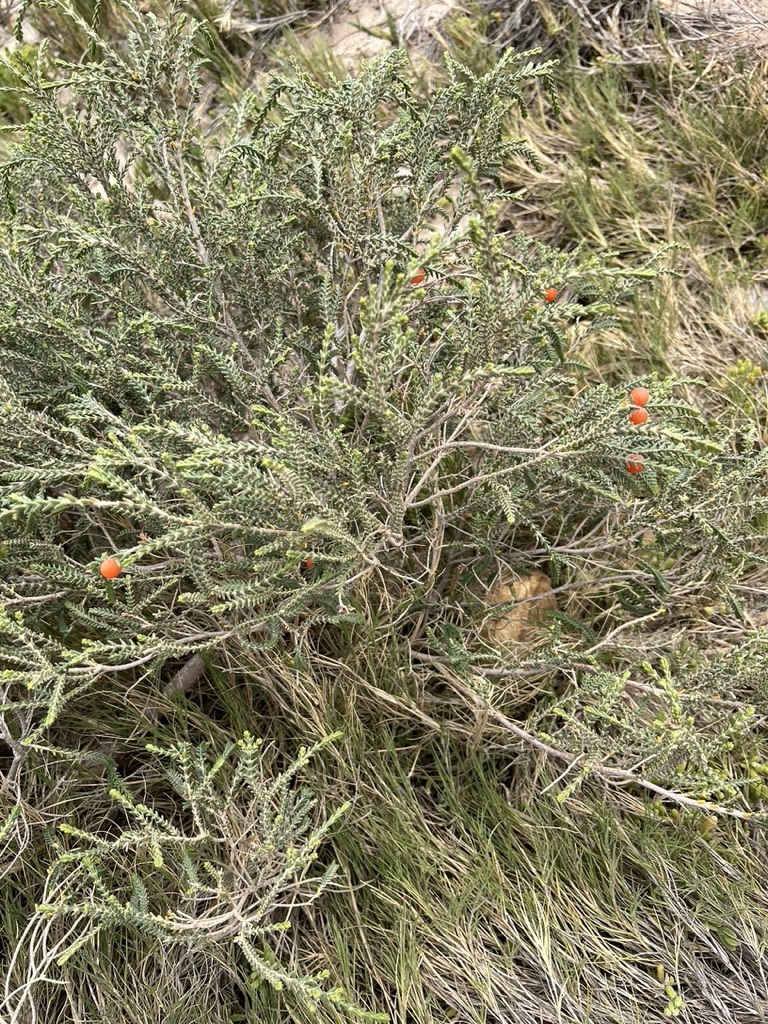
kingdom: Plantae
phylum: Tracheophyta
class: Magnoliopsida
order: Malvales
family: Thymelaeaceae
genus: Passerina
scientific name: Passerina ericoides
